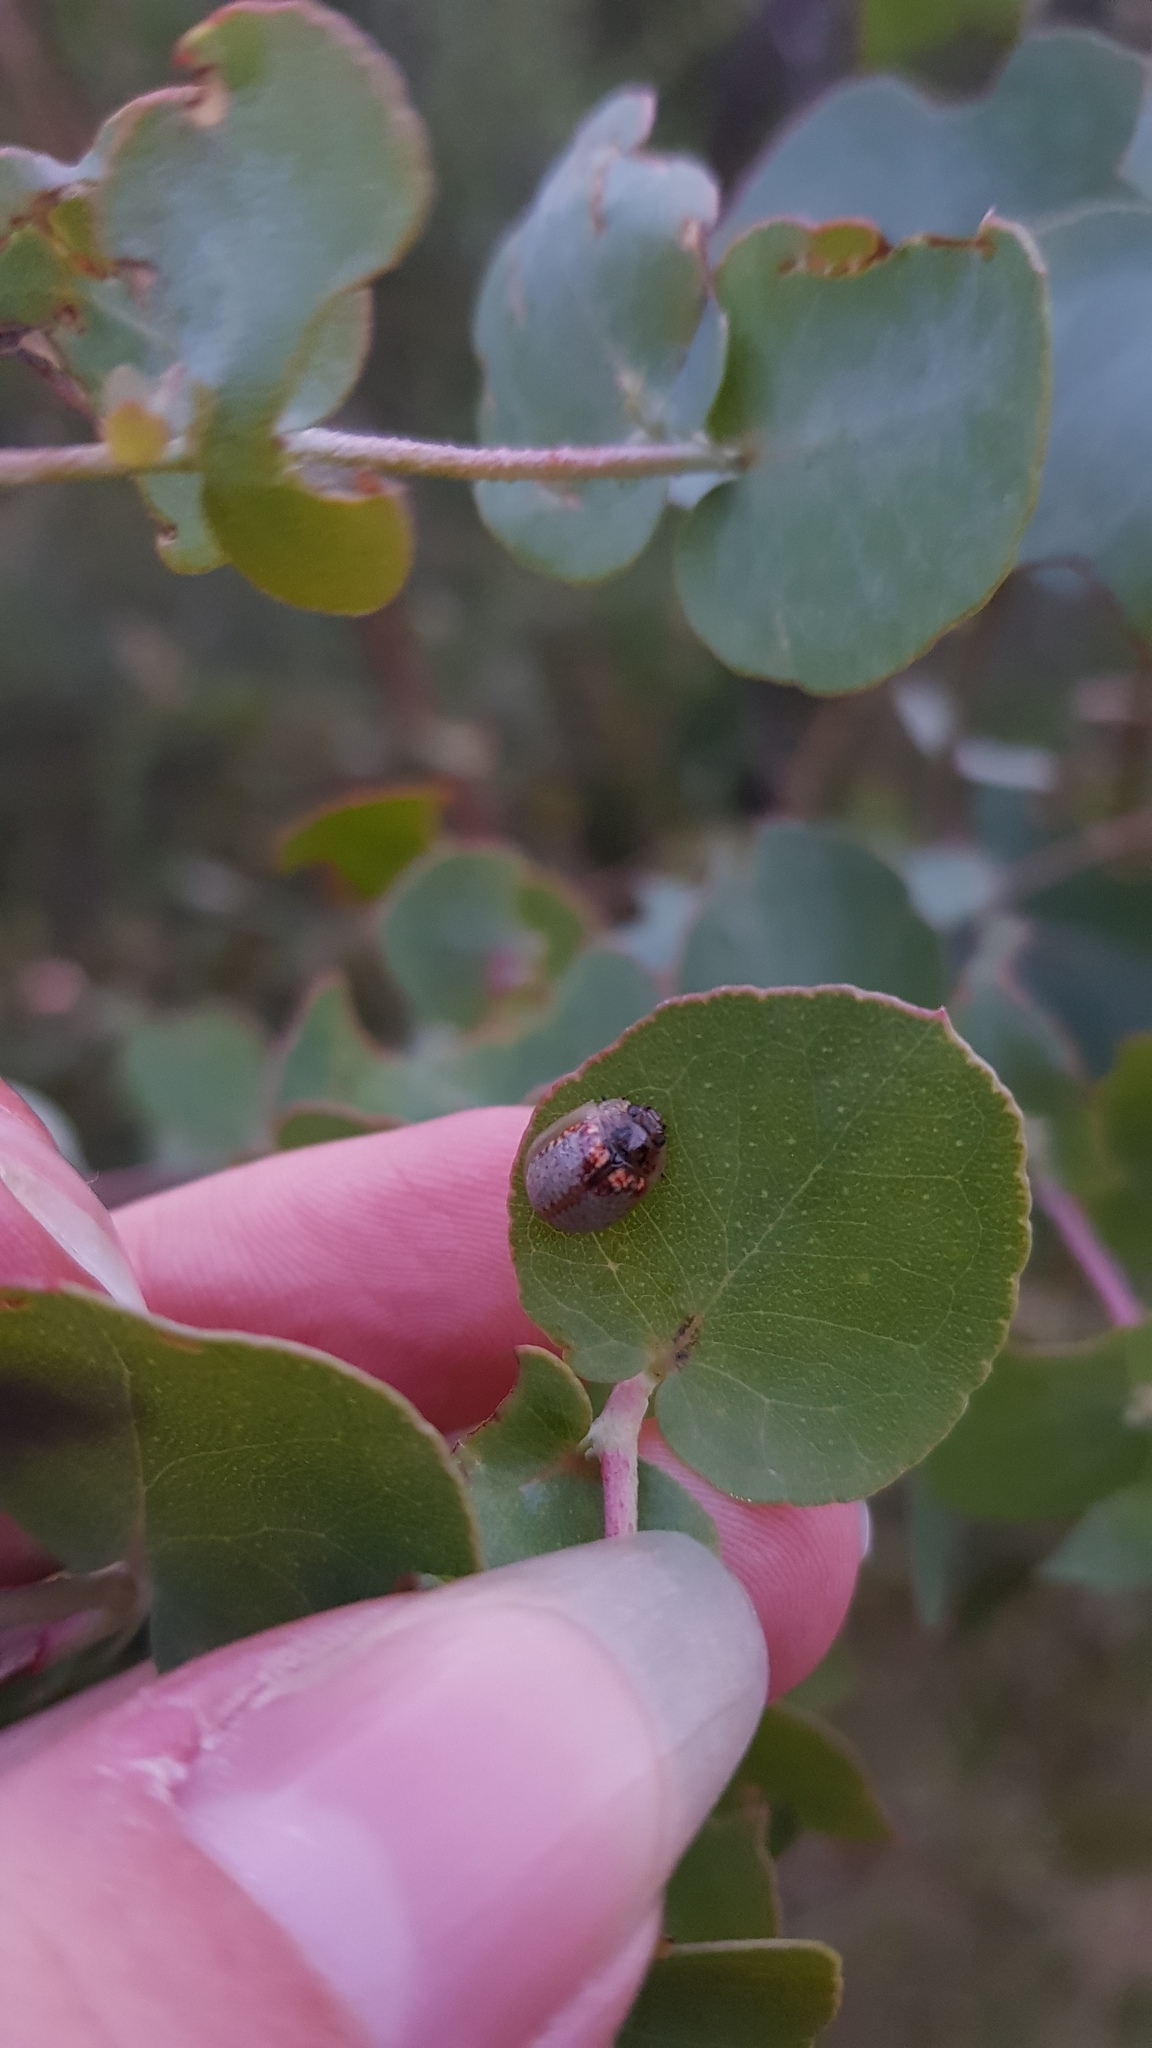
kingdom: Animalia
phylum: Arthropoda
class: Insecta
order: Coleoptera
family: Chrysomelidae
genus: Paropsisterna
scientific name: Paropsisterna m-fuscum
